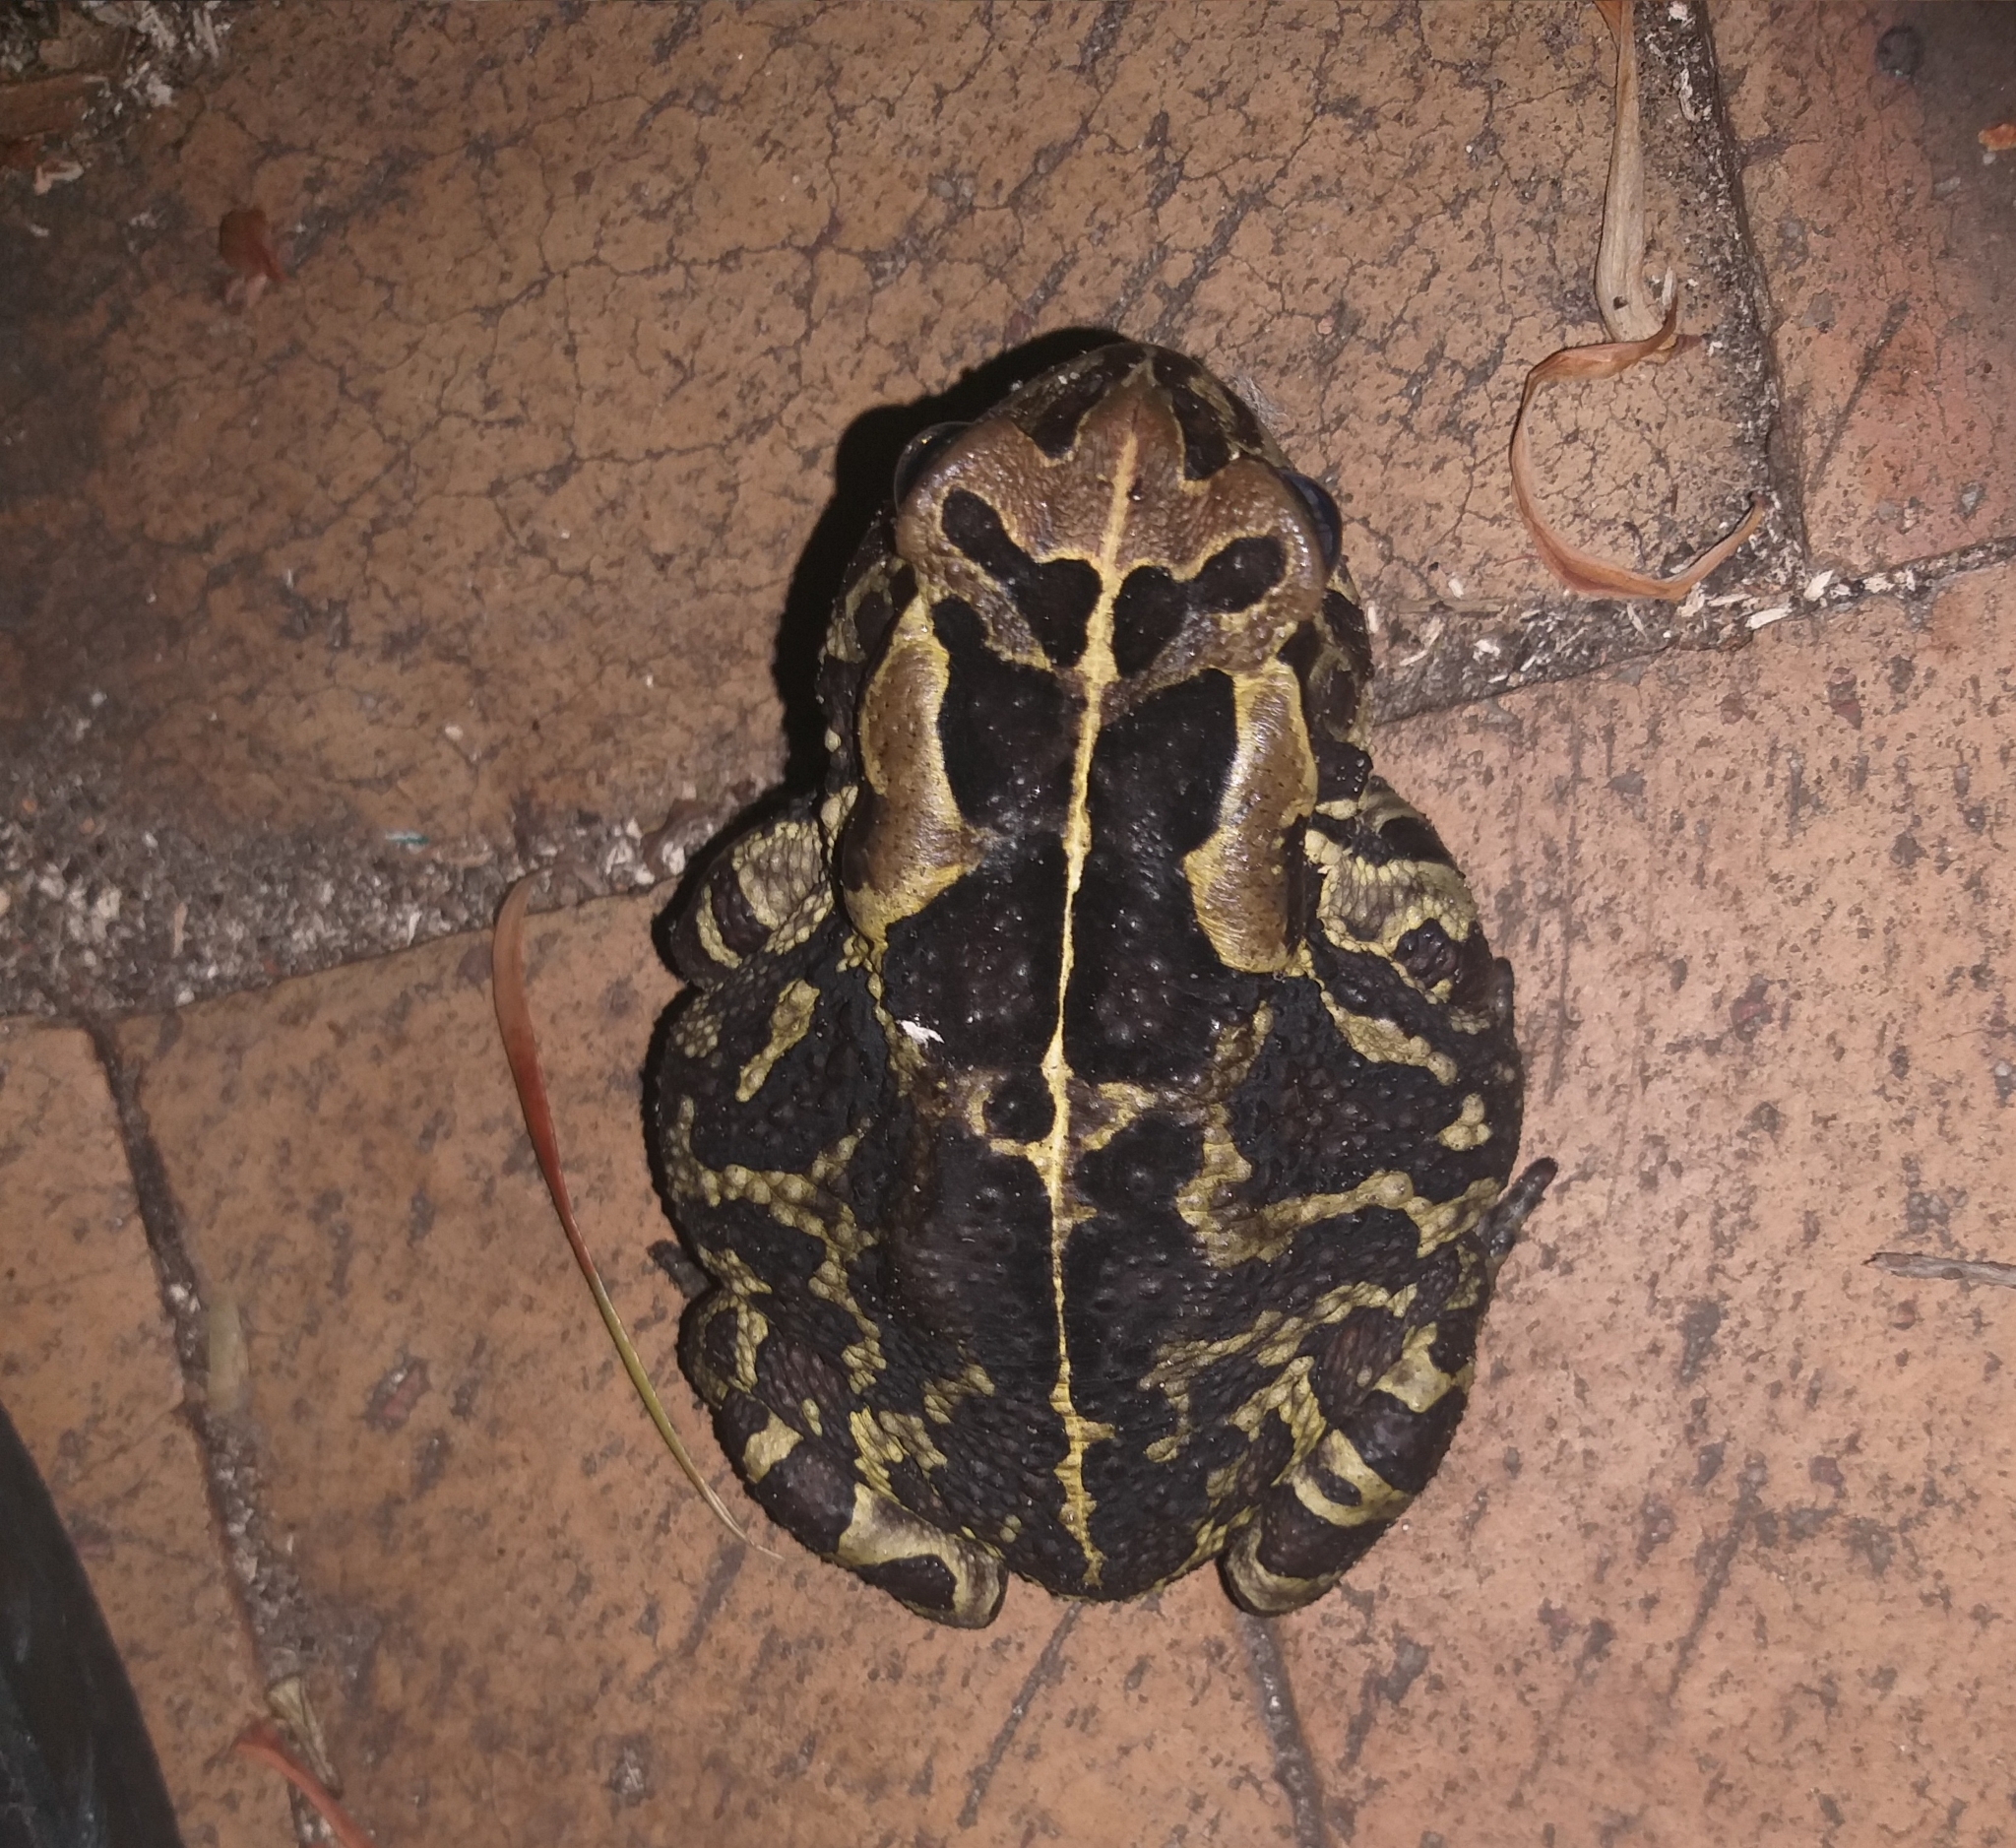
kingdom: Animalia
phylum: Chordata
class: Amphibia
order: Anura
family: Bufonidae
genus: Sclerophrys
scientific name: Sclerophrys pantherina
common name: Panther toad
